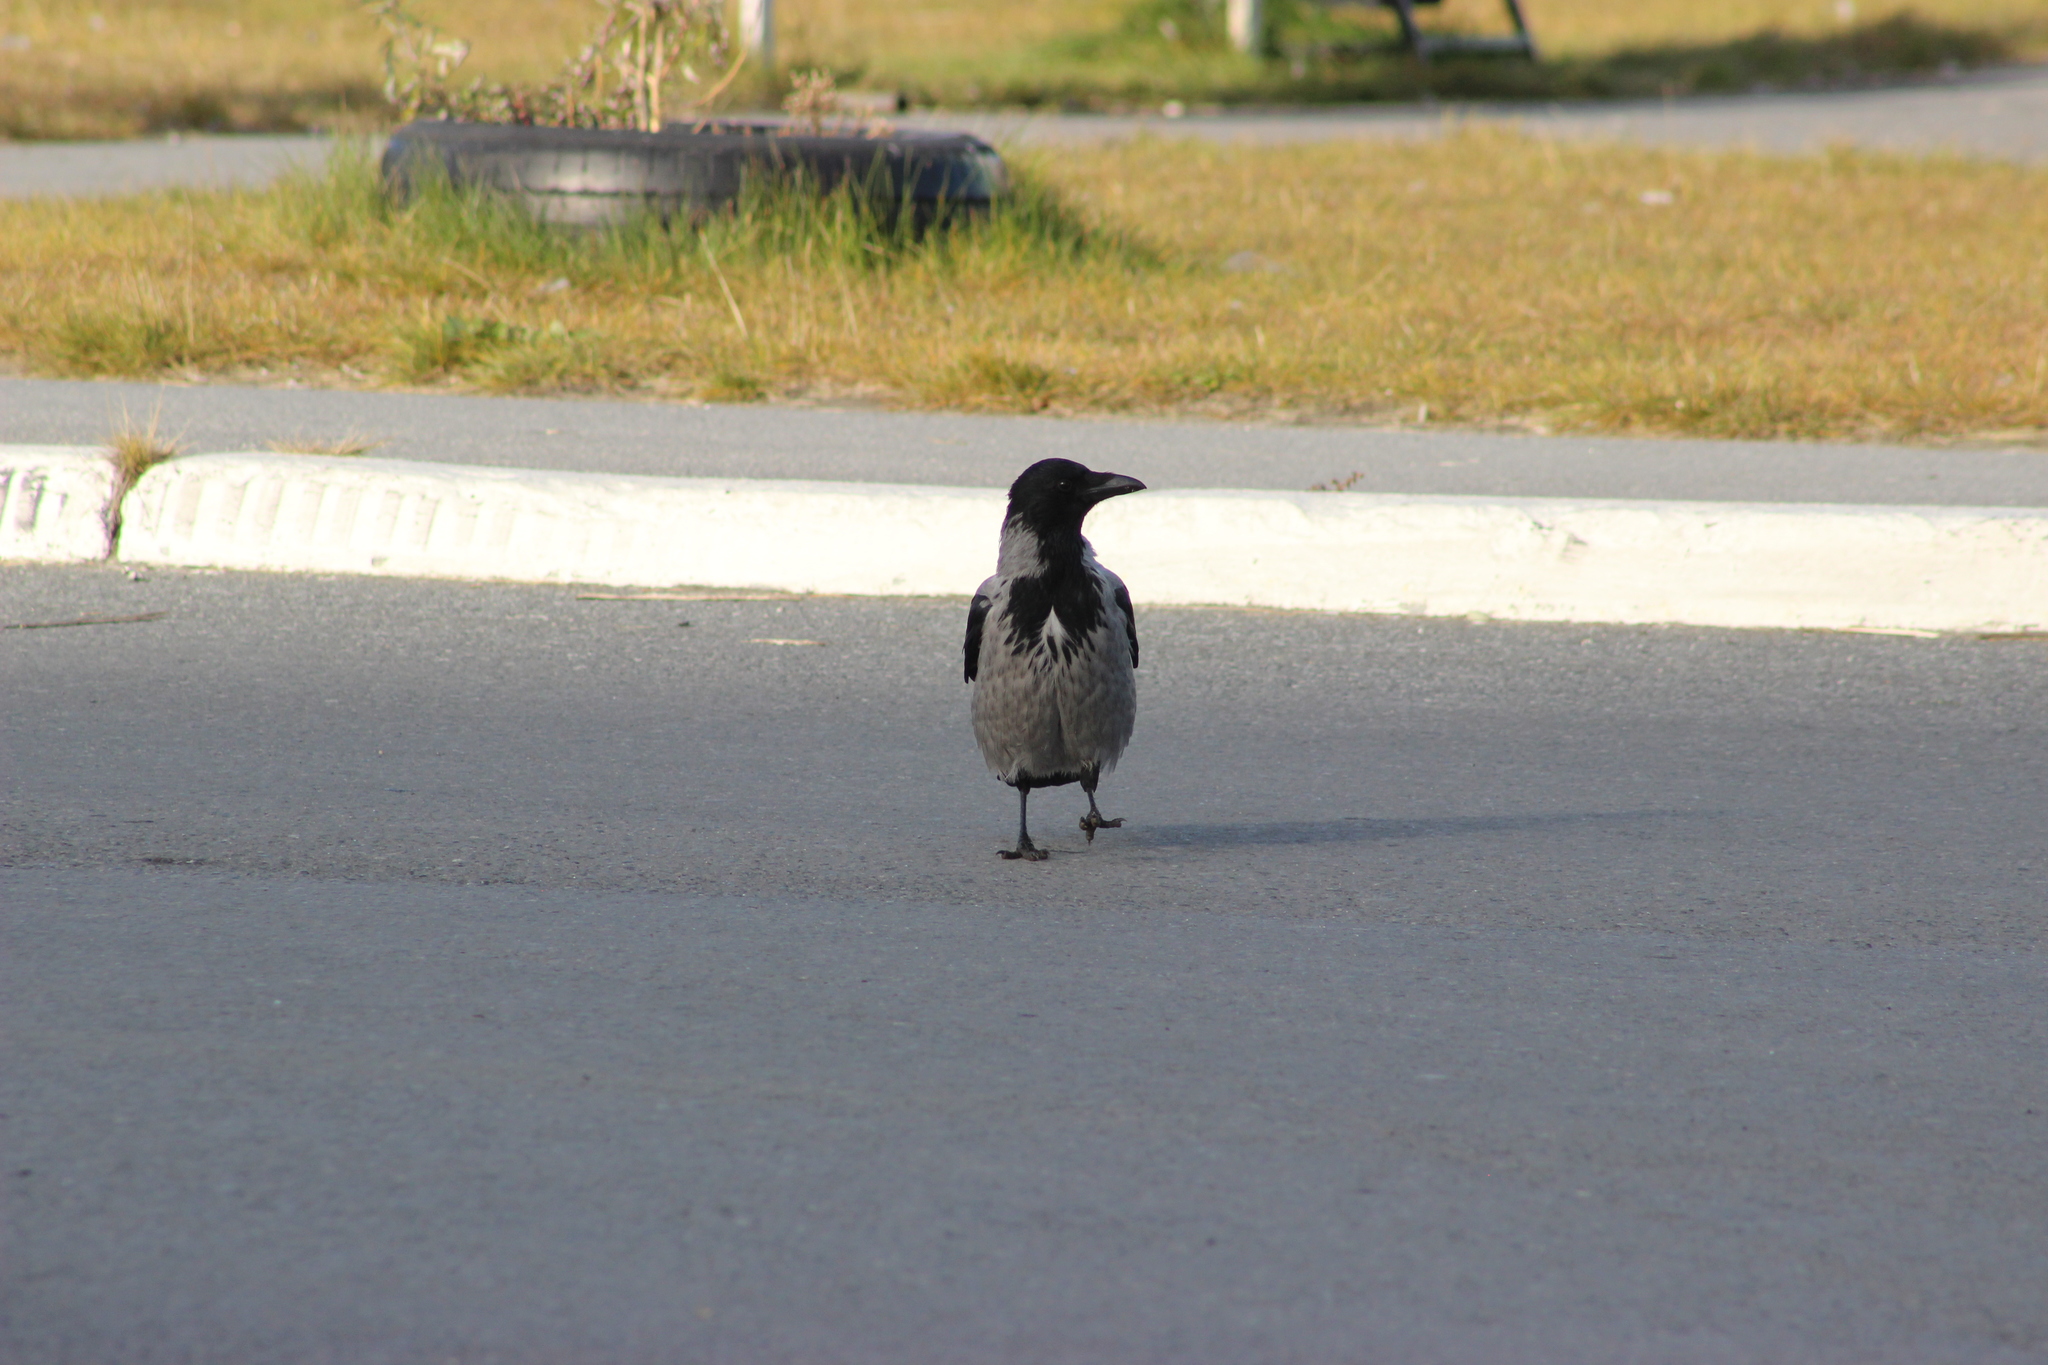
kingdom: Animalia
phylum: Chordata
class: Aves
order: Passeriformes
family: Corvidae
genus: Corvus
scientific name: Corvus cornix
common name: Hooded crow
